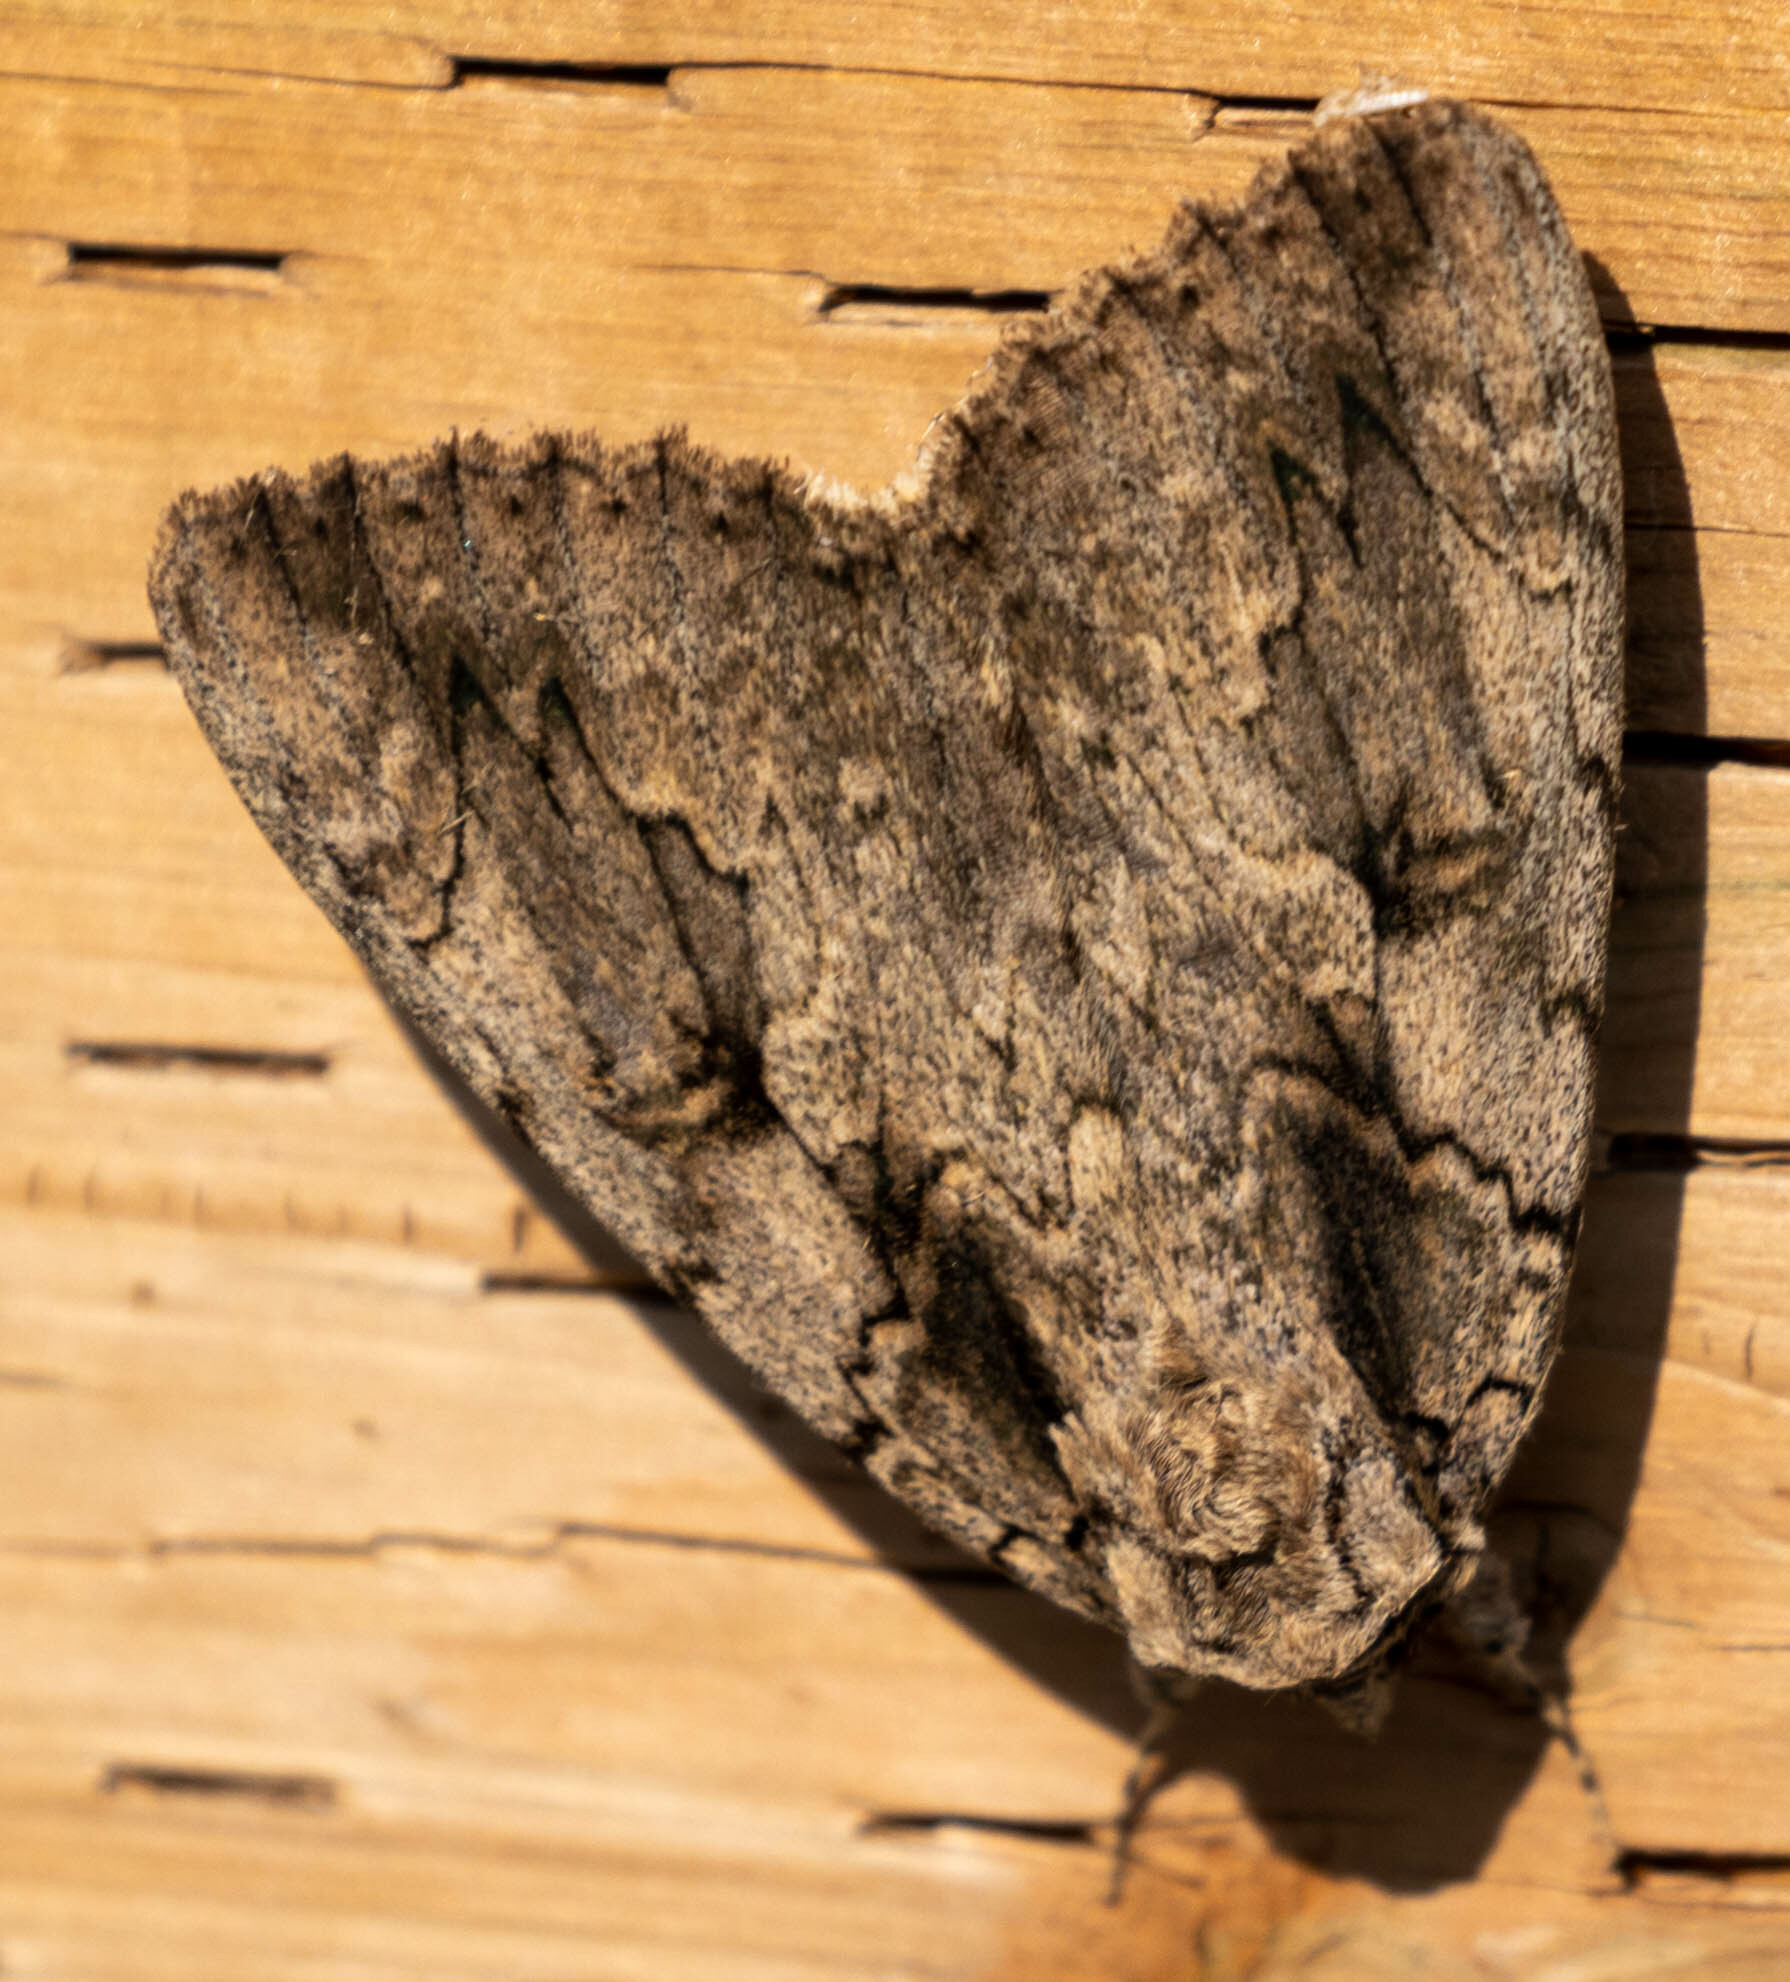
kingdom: Animalia
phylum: Arthropoda
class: Insecta
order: Lepidoptera
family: Erebidae
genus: Catocala
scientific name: Catocala amatrix
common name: Sweetheart underwing
